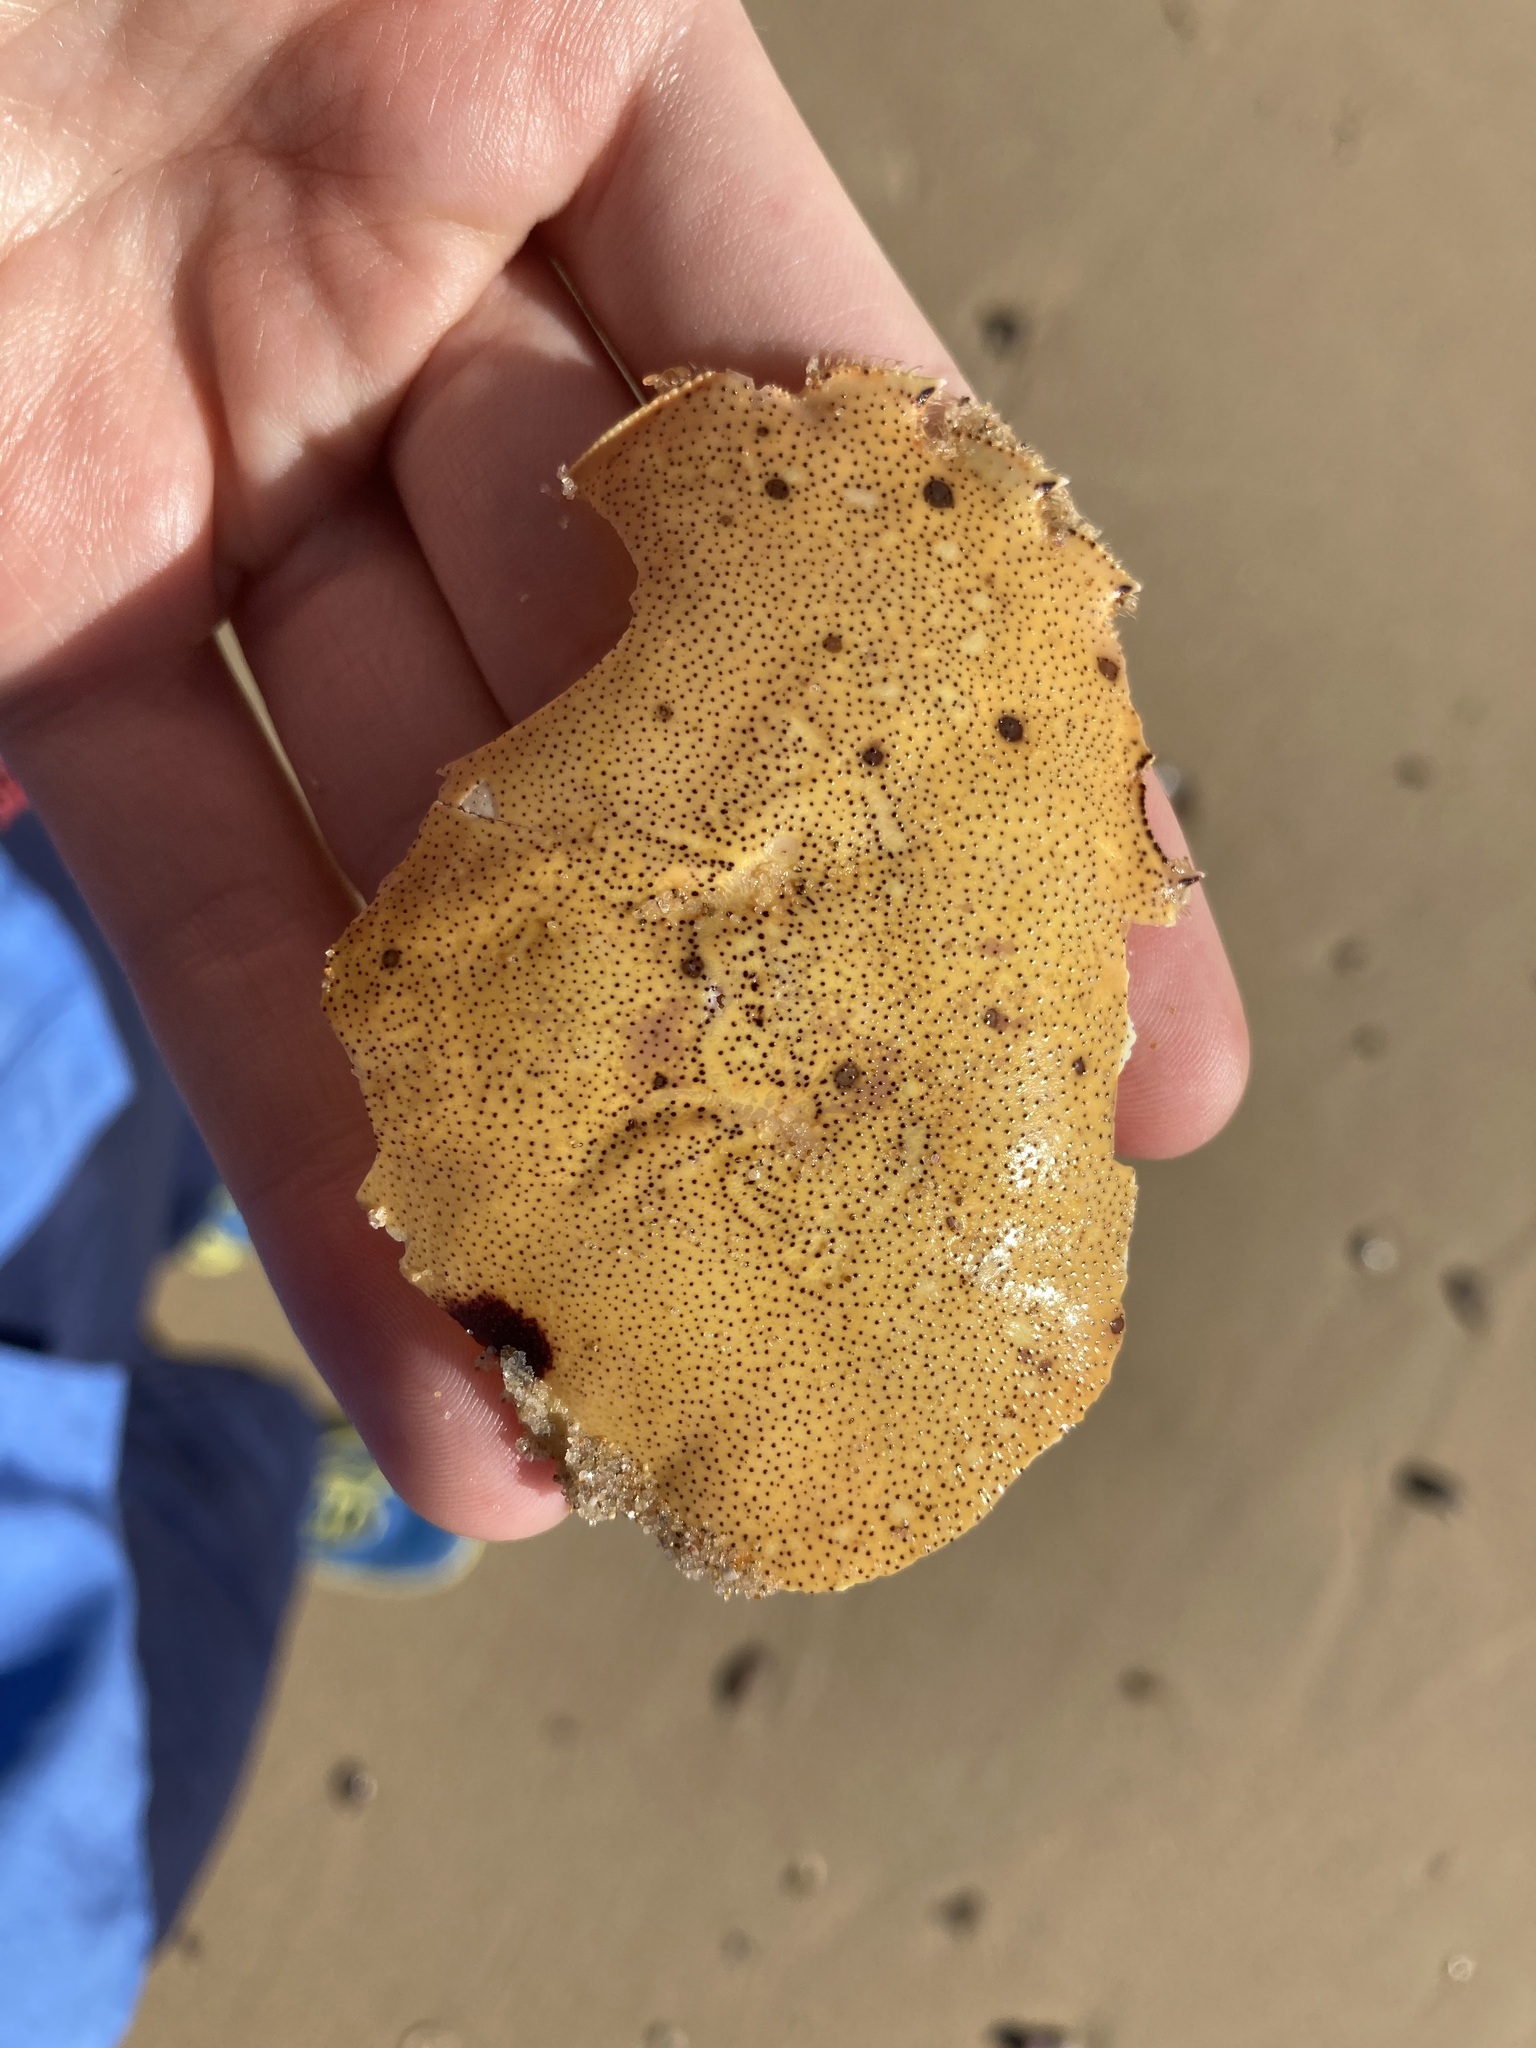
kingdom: Animalia
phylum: Arthropoda
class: Malacostraca
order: Decapoda
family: Ovalipidae
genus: Ovalipes
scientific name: Ovalipes australiensis
